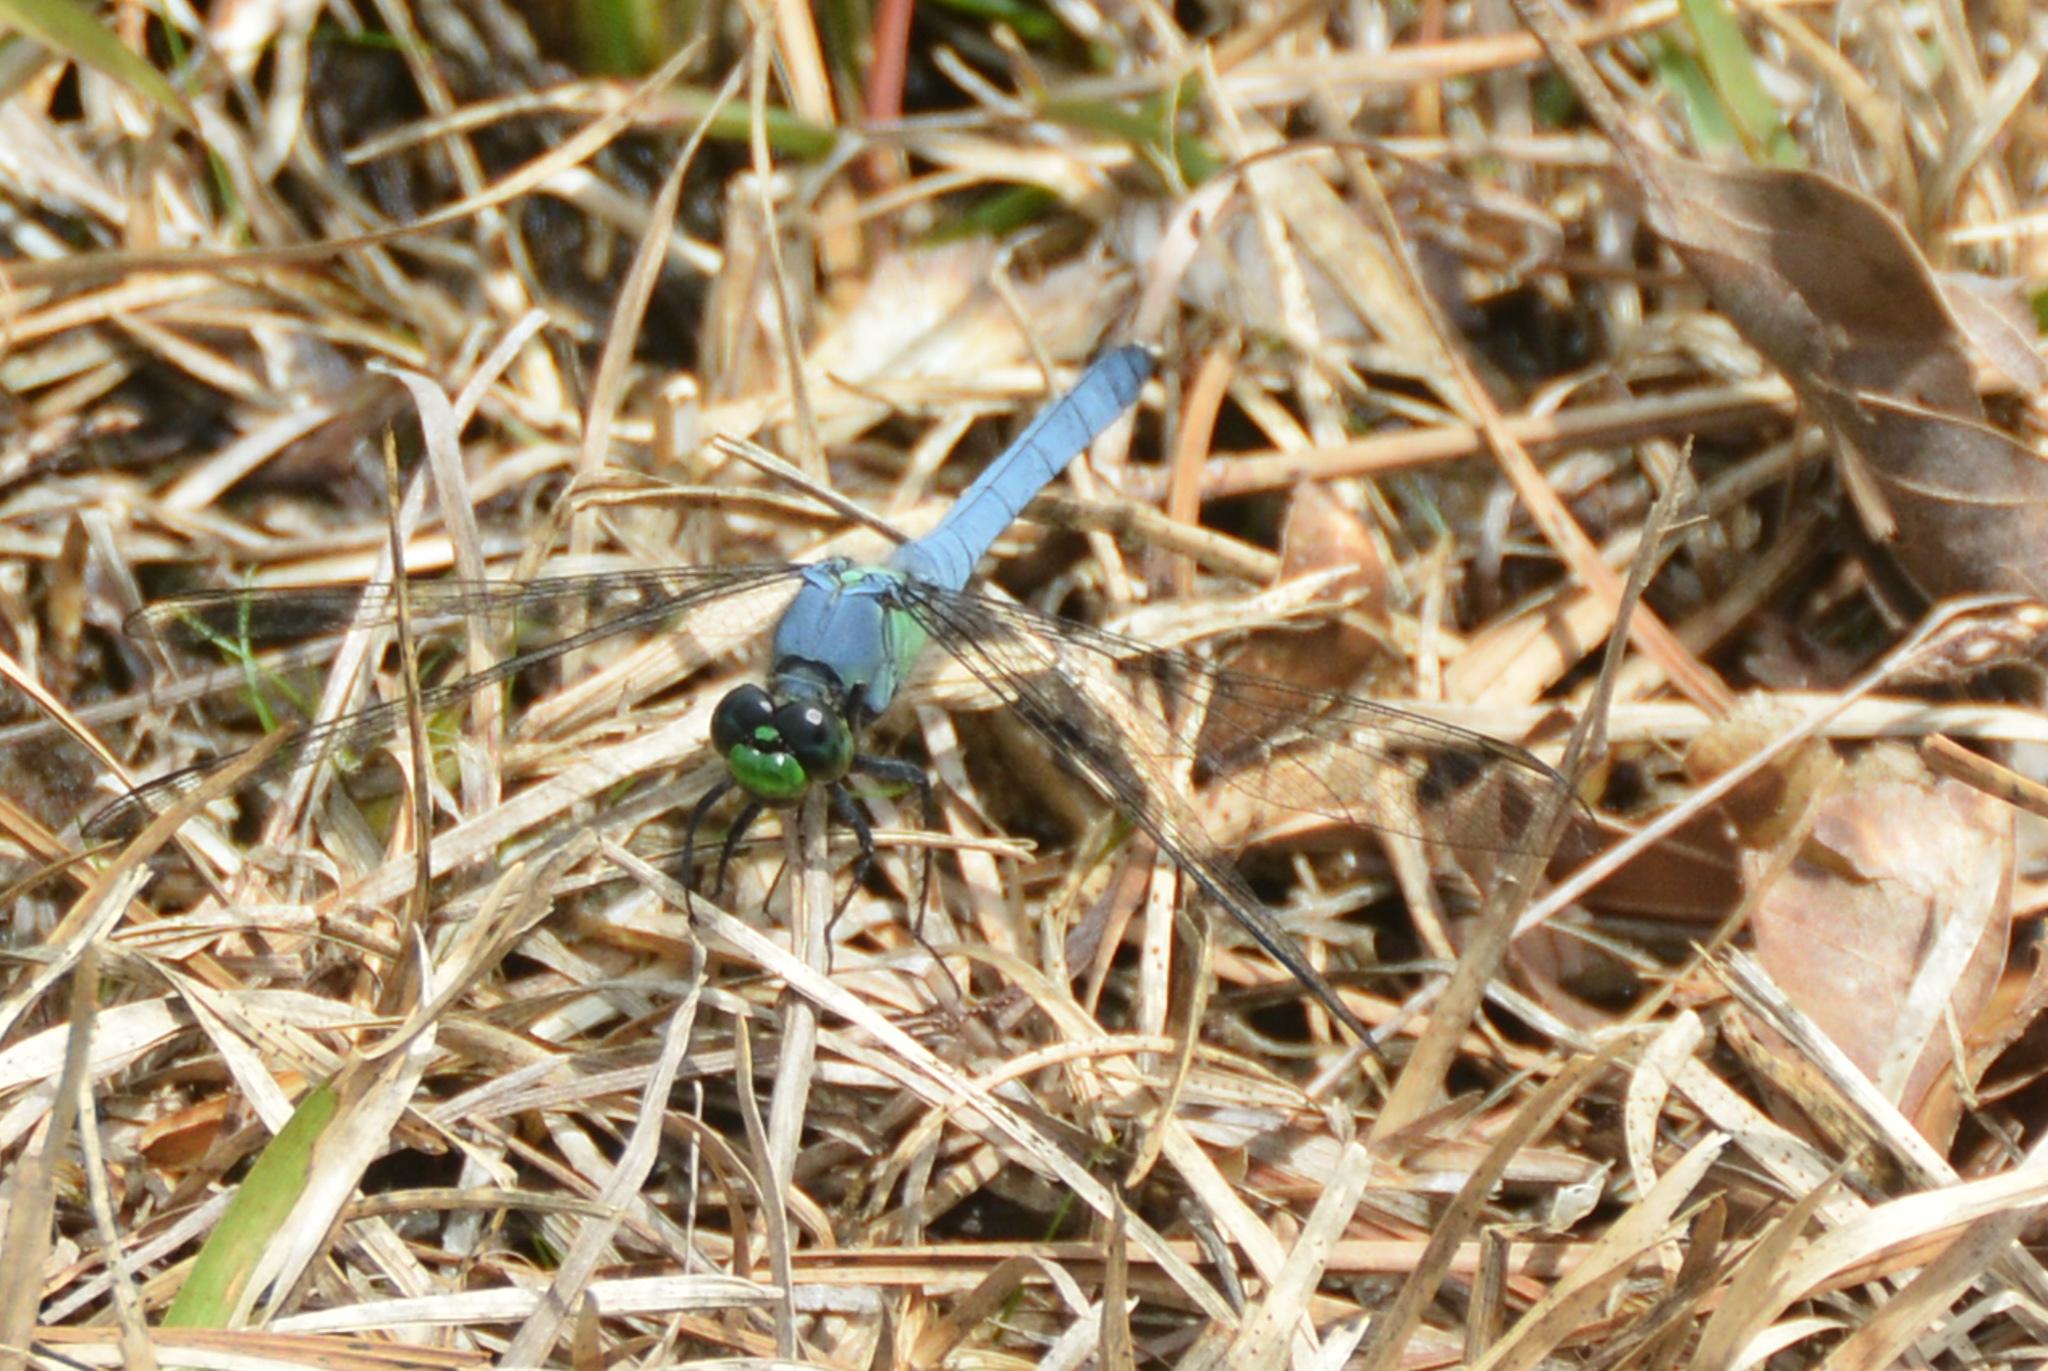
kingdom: Animalia
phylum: Arthropoda
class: Insecta
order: Odonata
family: Libellulidae
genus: Erythemis
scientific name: Erythemis simplicicollis
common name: Eastern pondhawk
